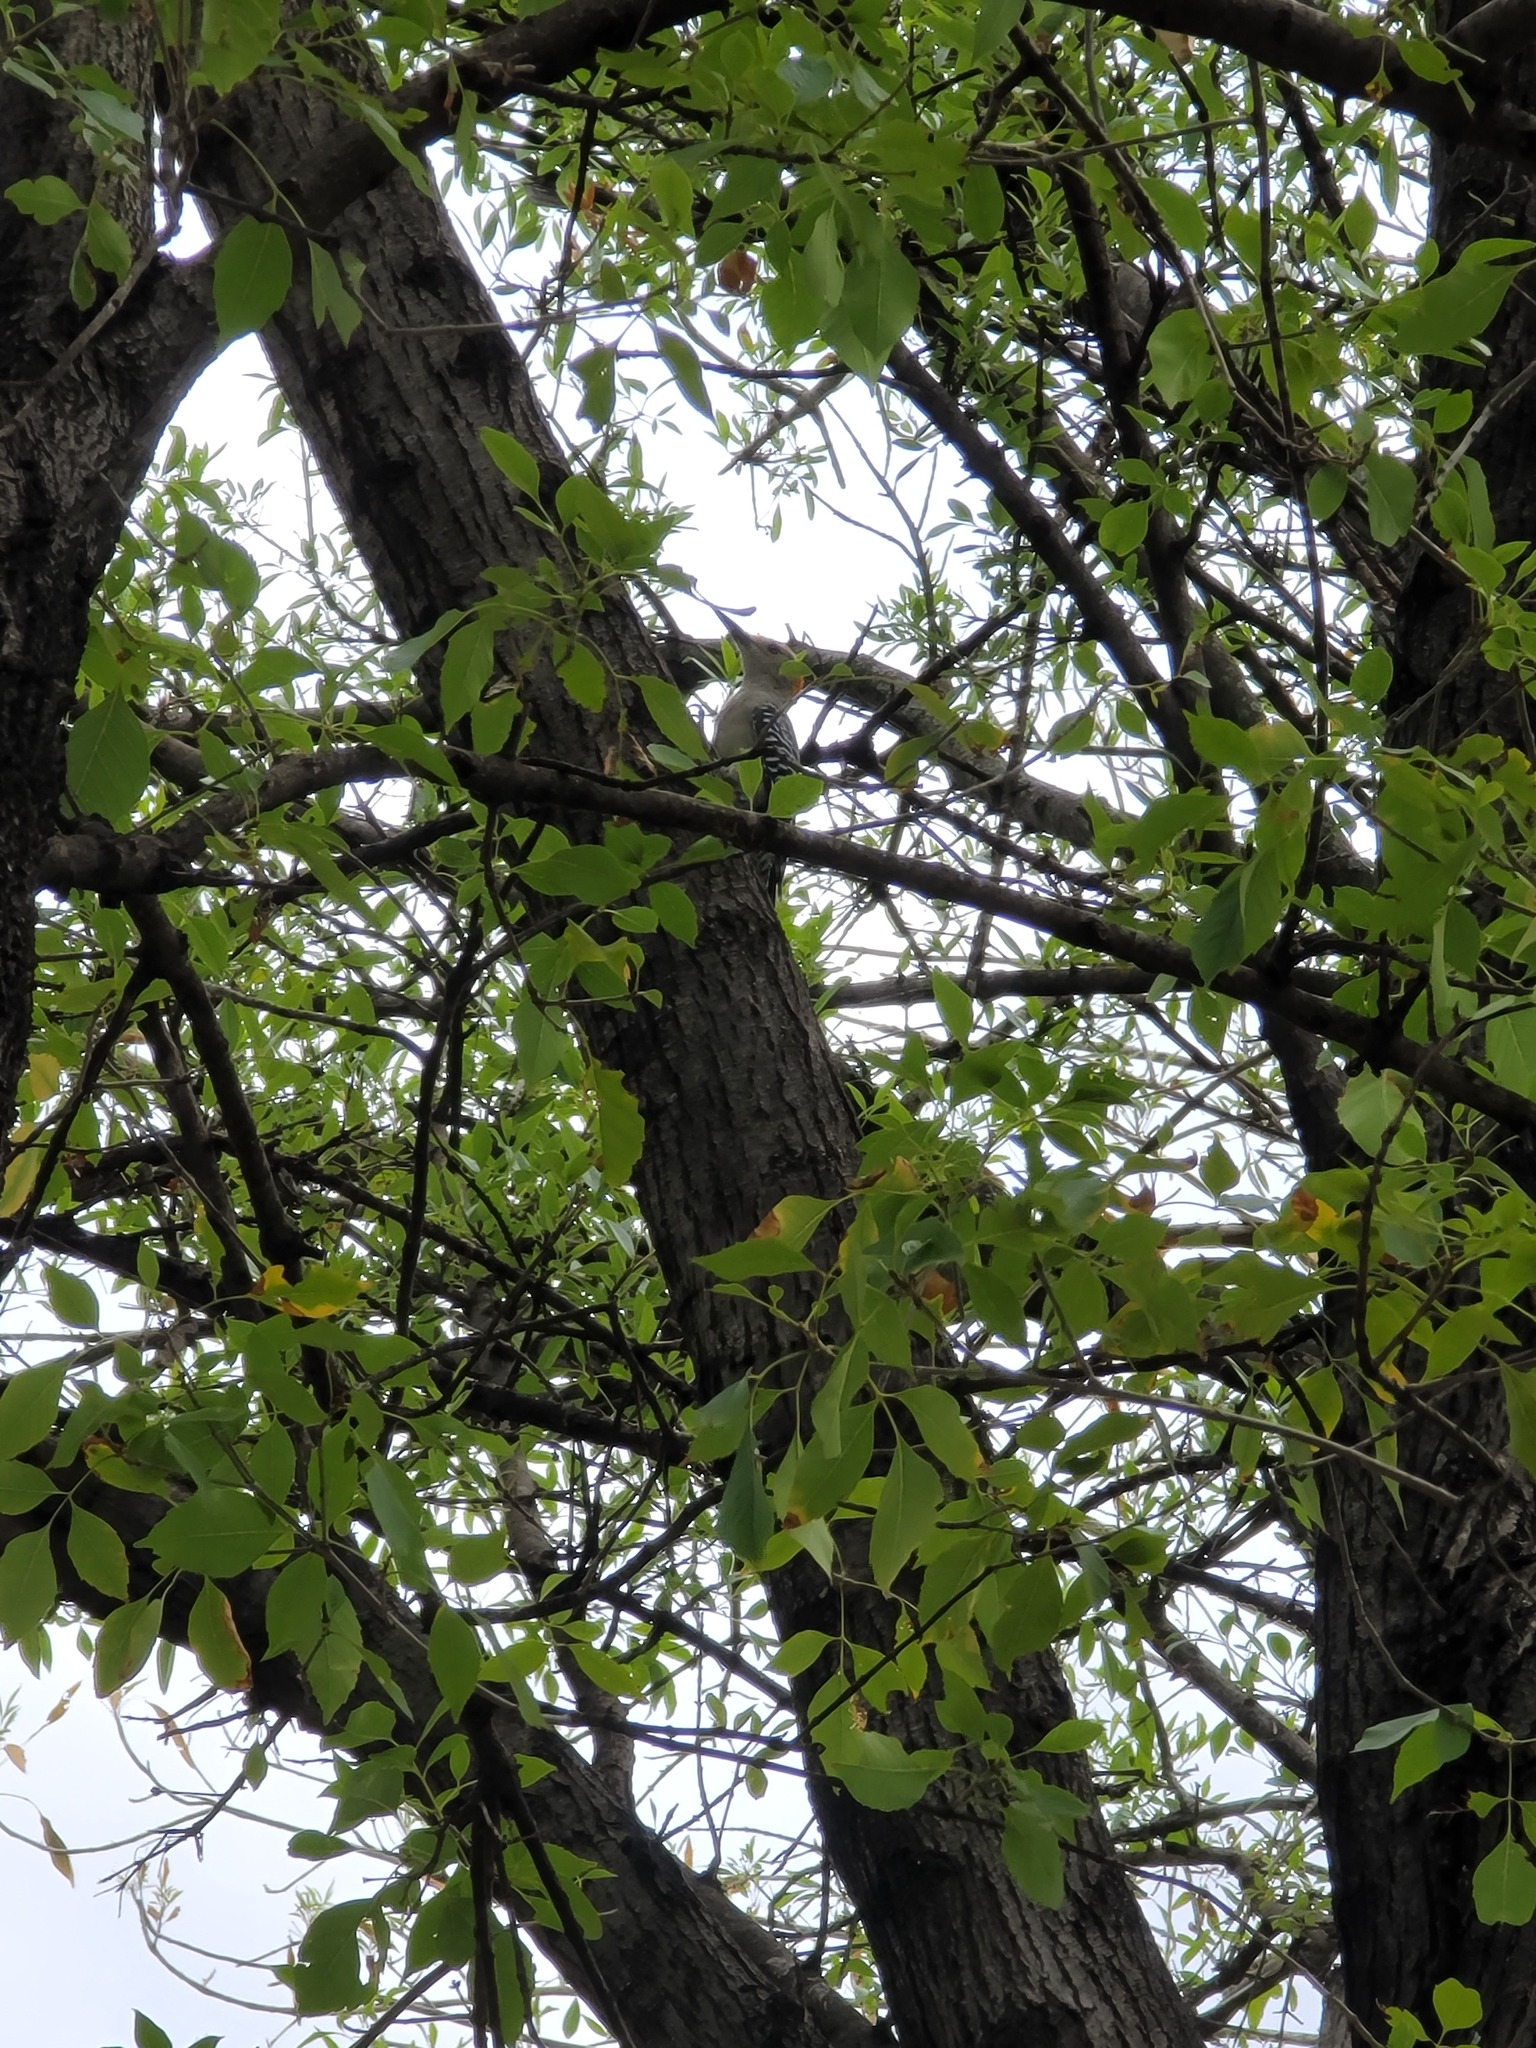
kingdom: Animalia
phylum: Chordata
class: Aves
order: Piciformes
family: Picidae
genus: Melanerpes
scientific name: Melanerpes aurifrons
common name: Golden-fronted woodpecker
